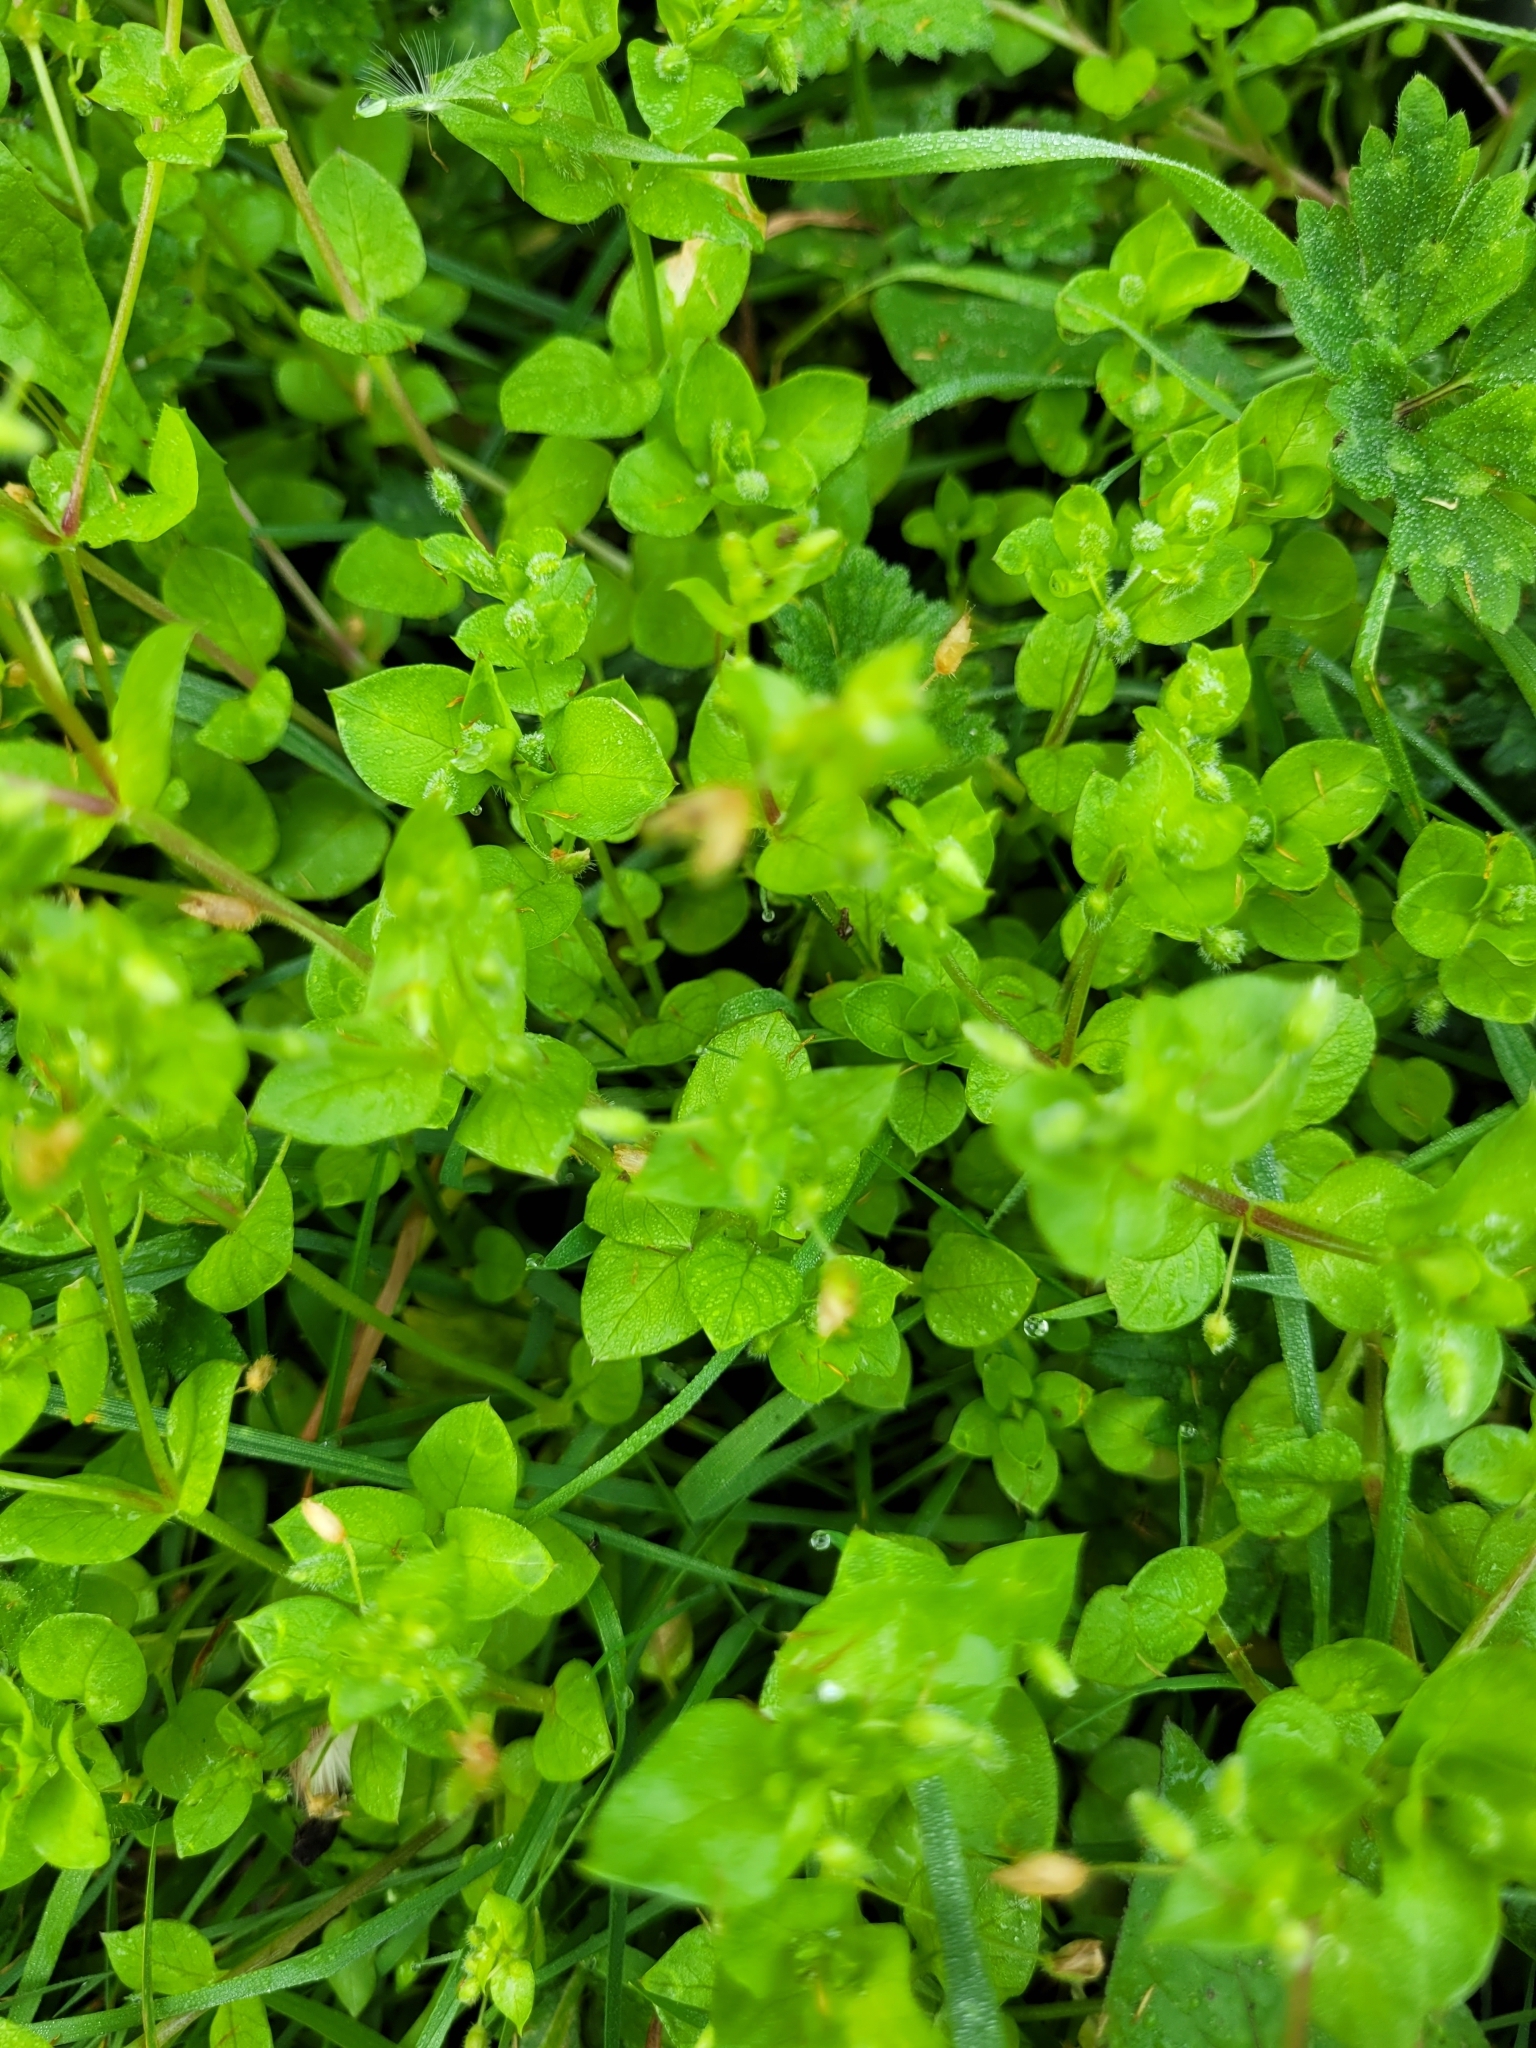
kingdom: Plantae
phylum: Tracheophyta
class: Magnoliopsida
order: Caryophyllales
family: Caryophyllaceae
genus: Stellaria
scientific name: Stellaria media
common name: Common chickweed
